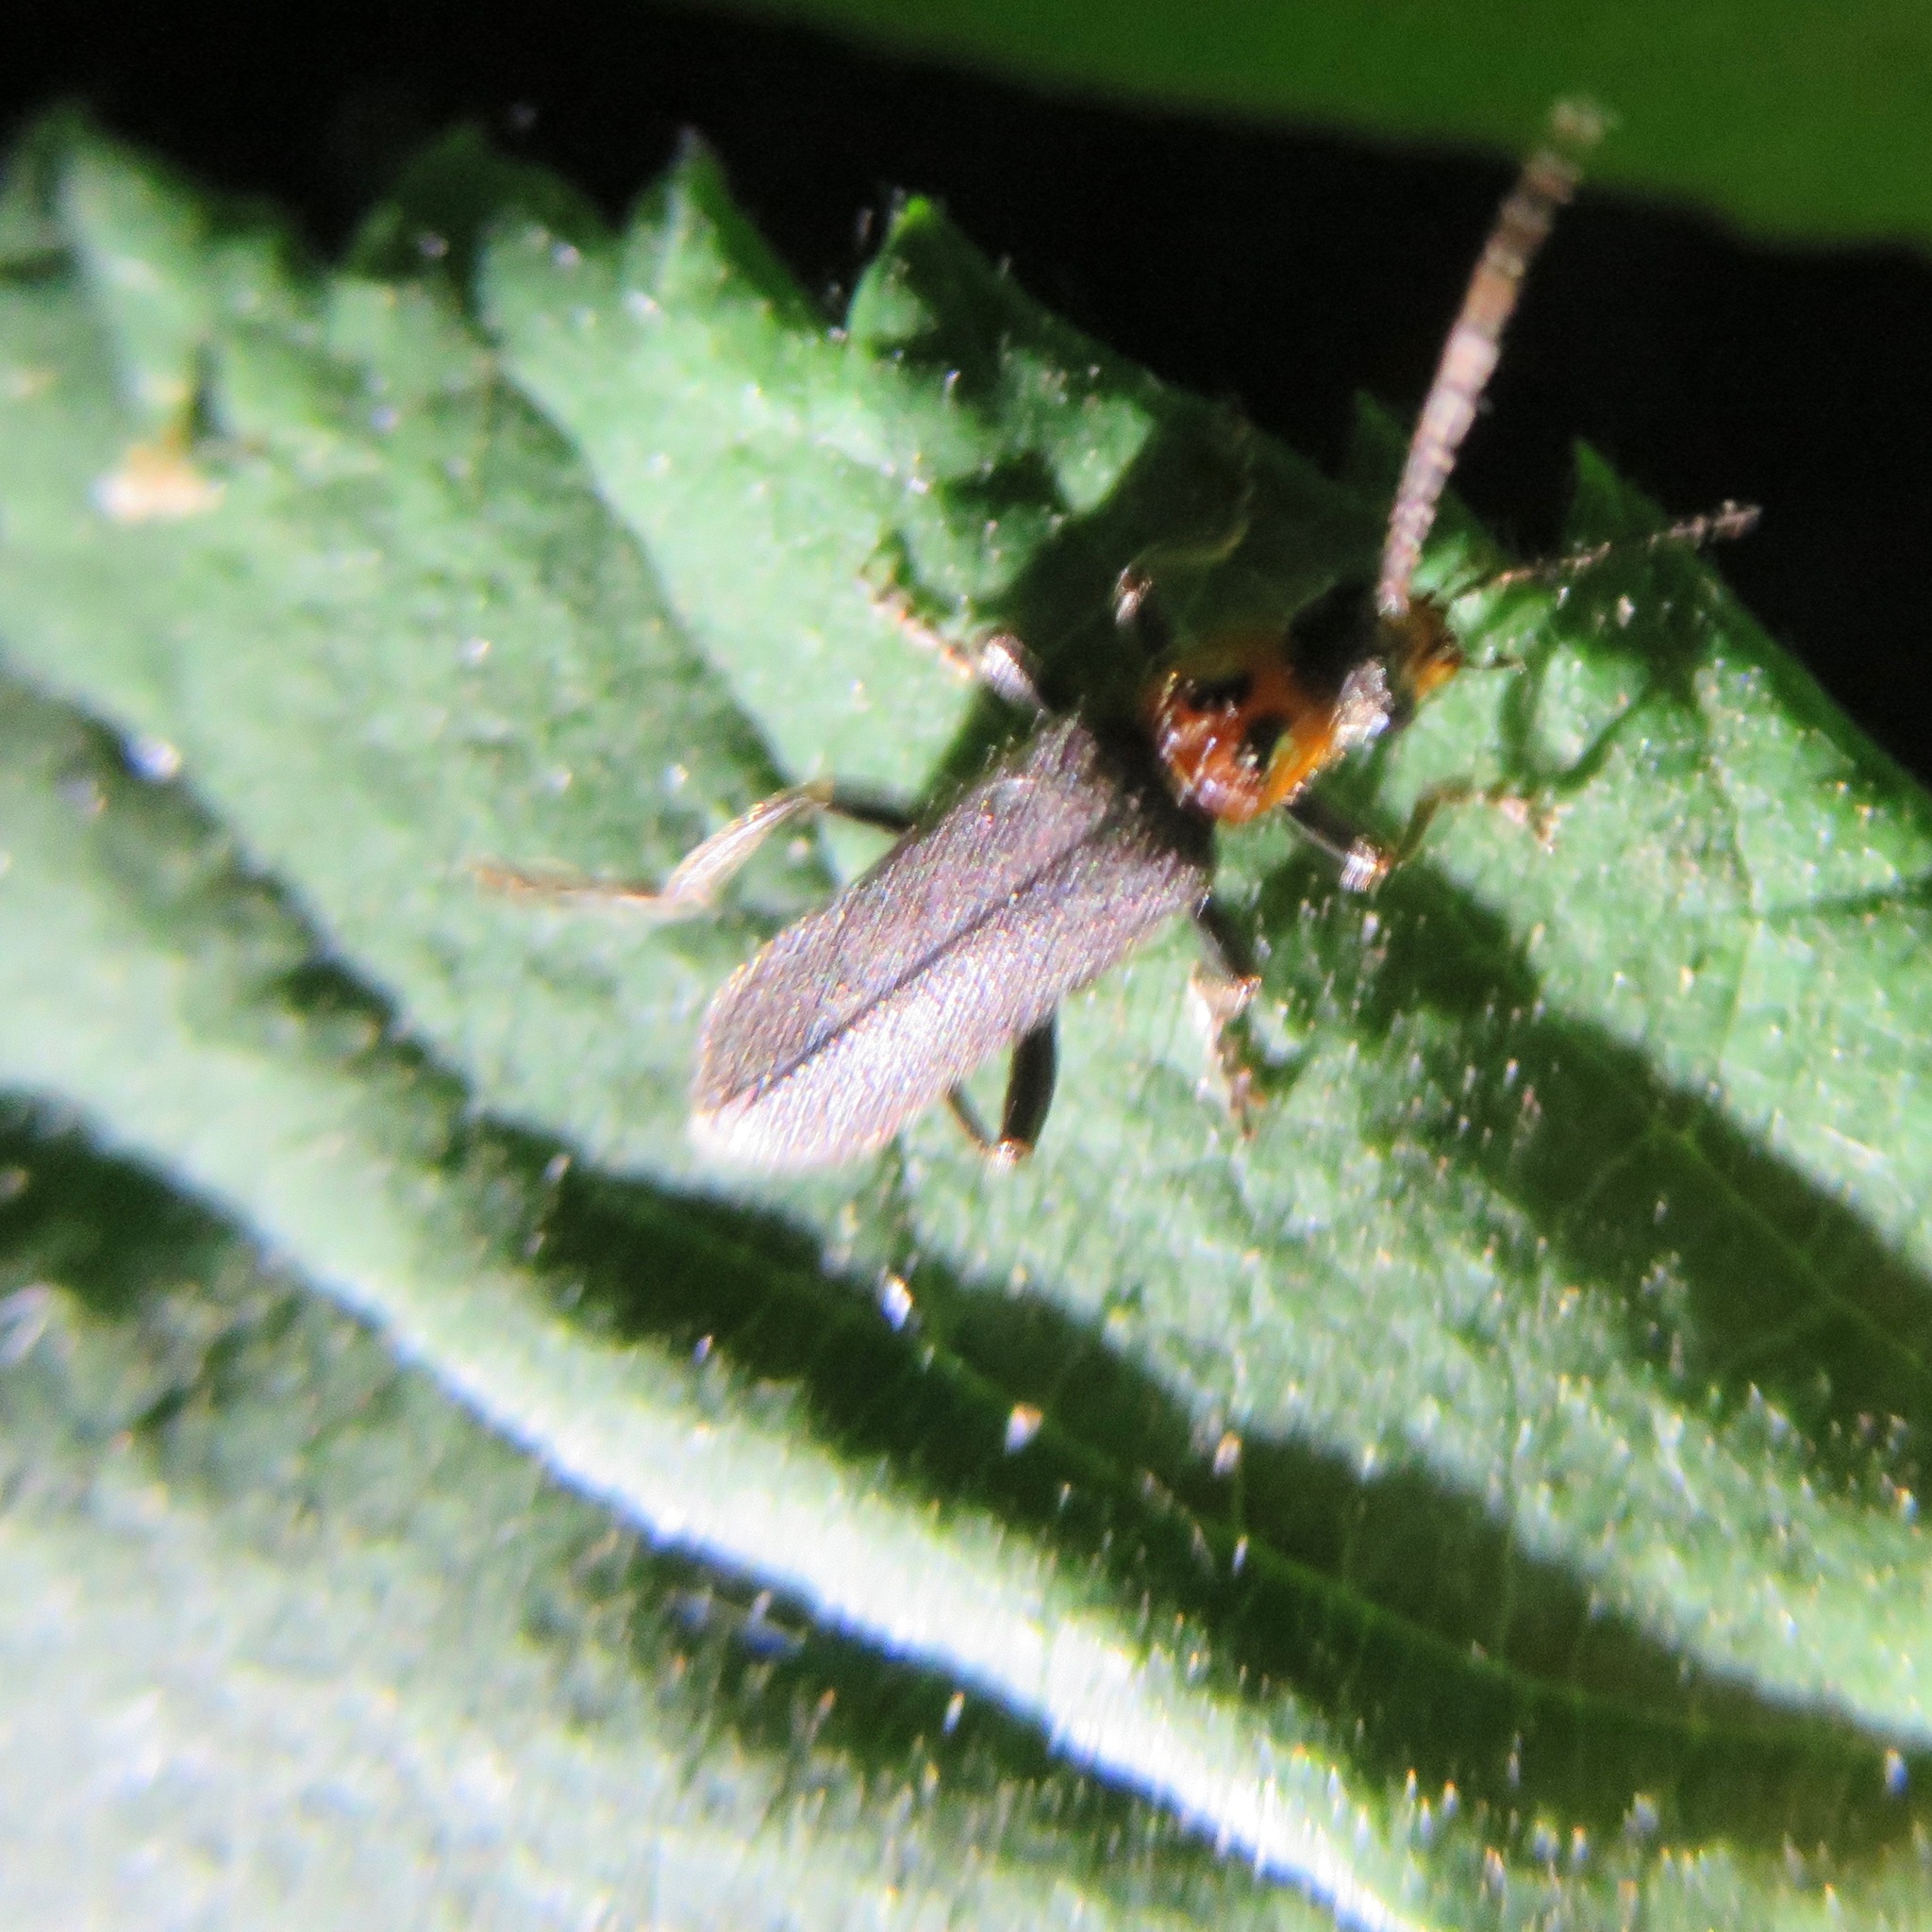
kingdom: Animalia
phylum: Arthropoda
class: Insecta
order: Coleoptera
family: Cantharidae
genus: Cyrtomoptera
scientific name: Cyrtomoptera divisa
